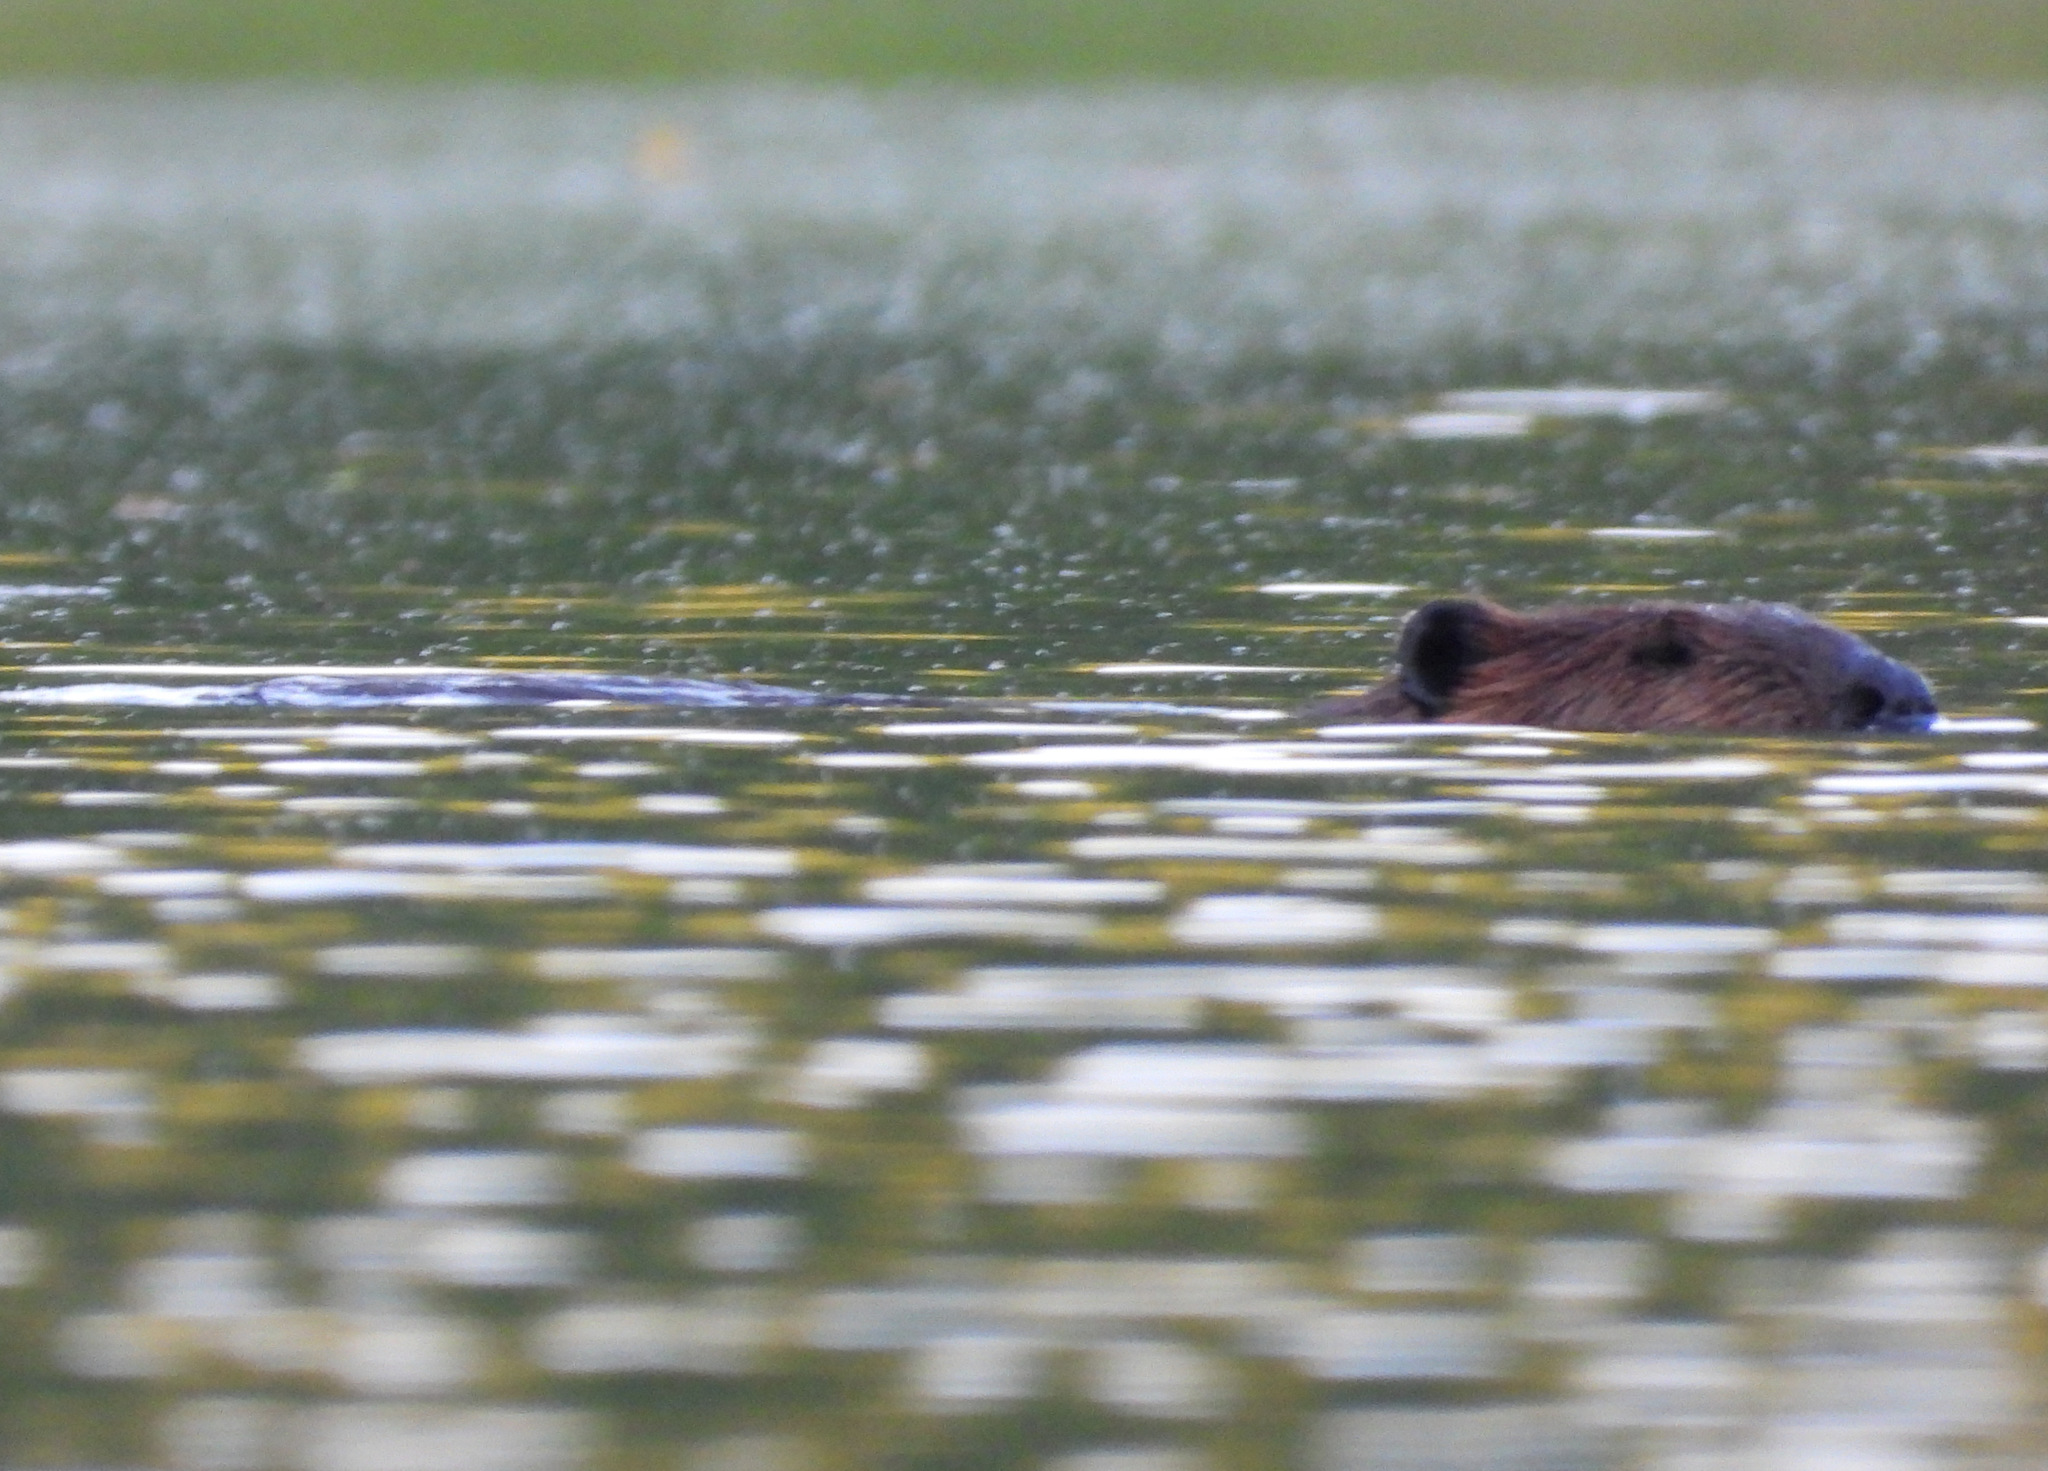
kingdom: Animalia
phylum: Chordata
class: Mammalia
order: Rodentia
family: Castoridae
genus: Castor
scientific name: Castor canadensis
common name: American beaver
